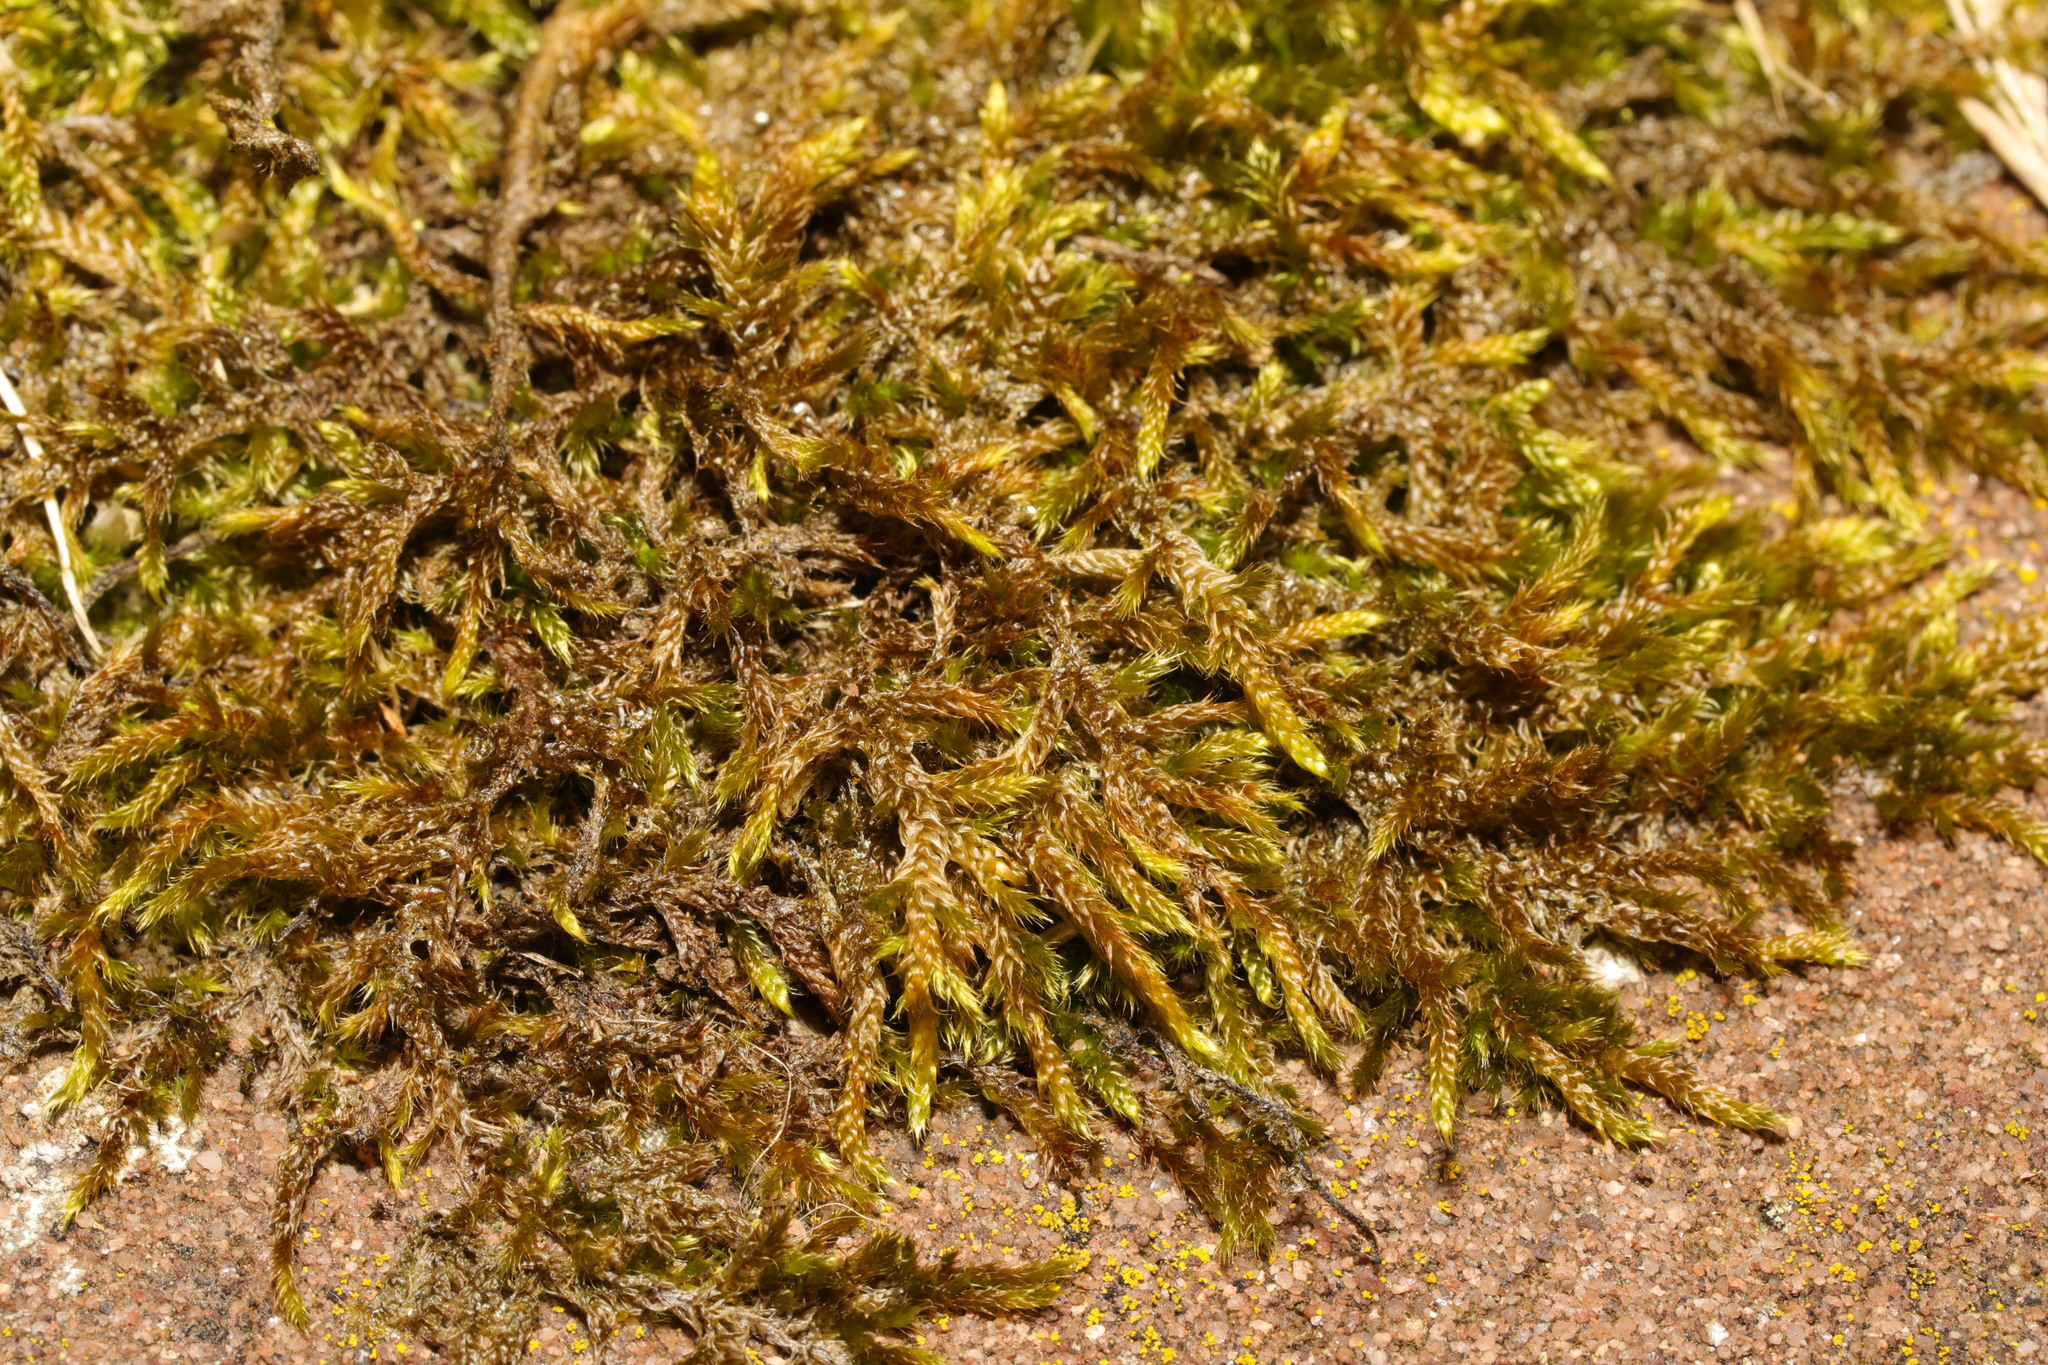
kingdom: Plantae
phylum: Bryophyta
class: Bryopsida
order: Hypnales
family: Hypnaceae
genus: Hypnum
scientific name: Hypnum cupressiforme
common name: Cypress-leaved plait-moss
